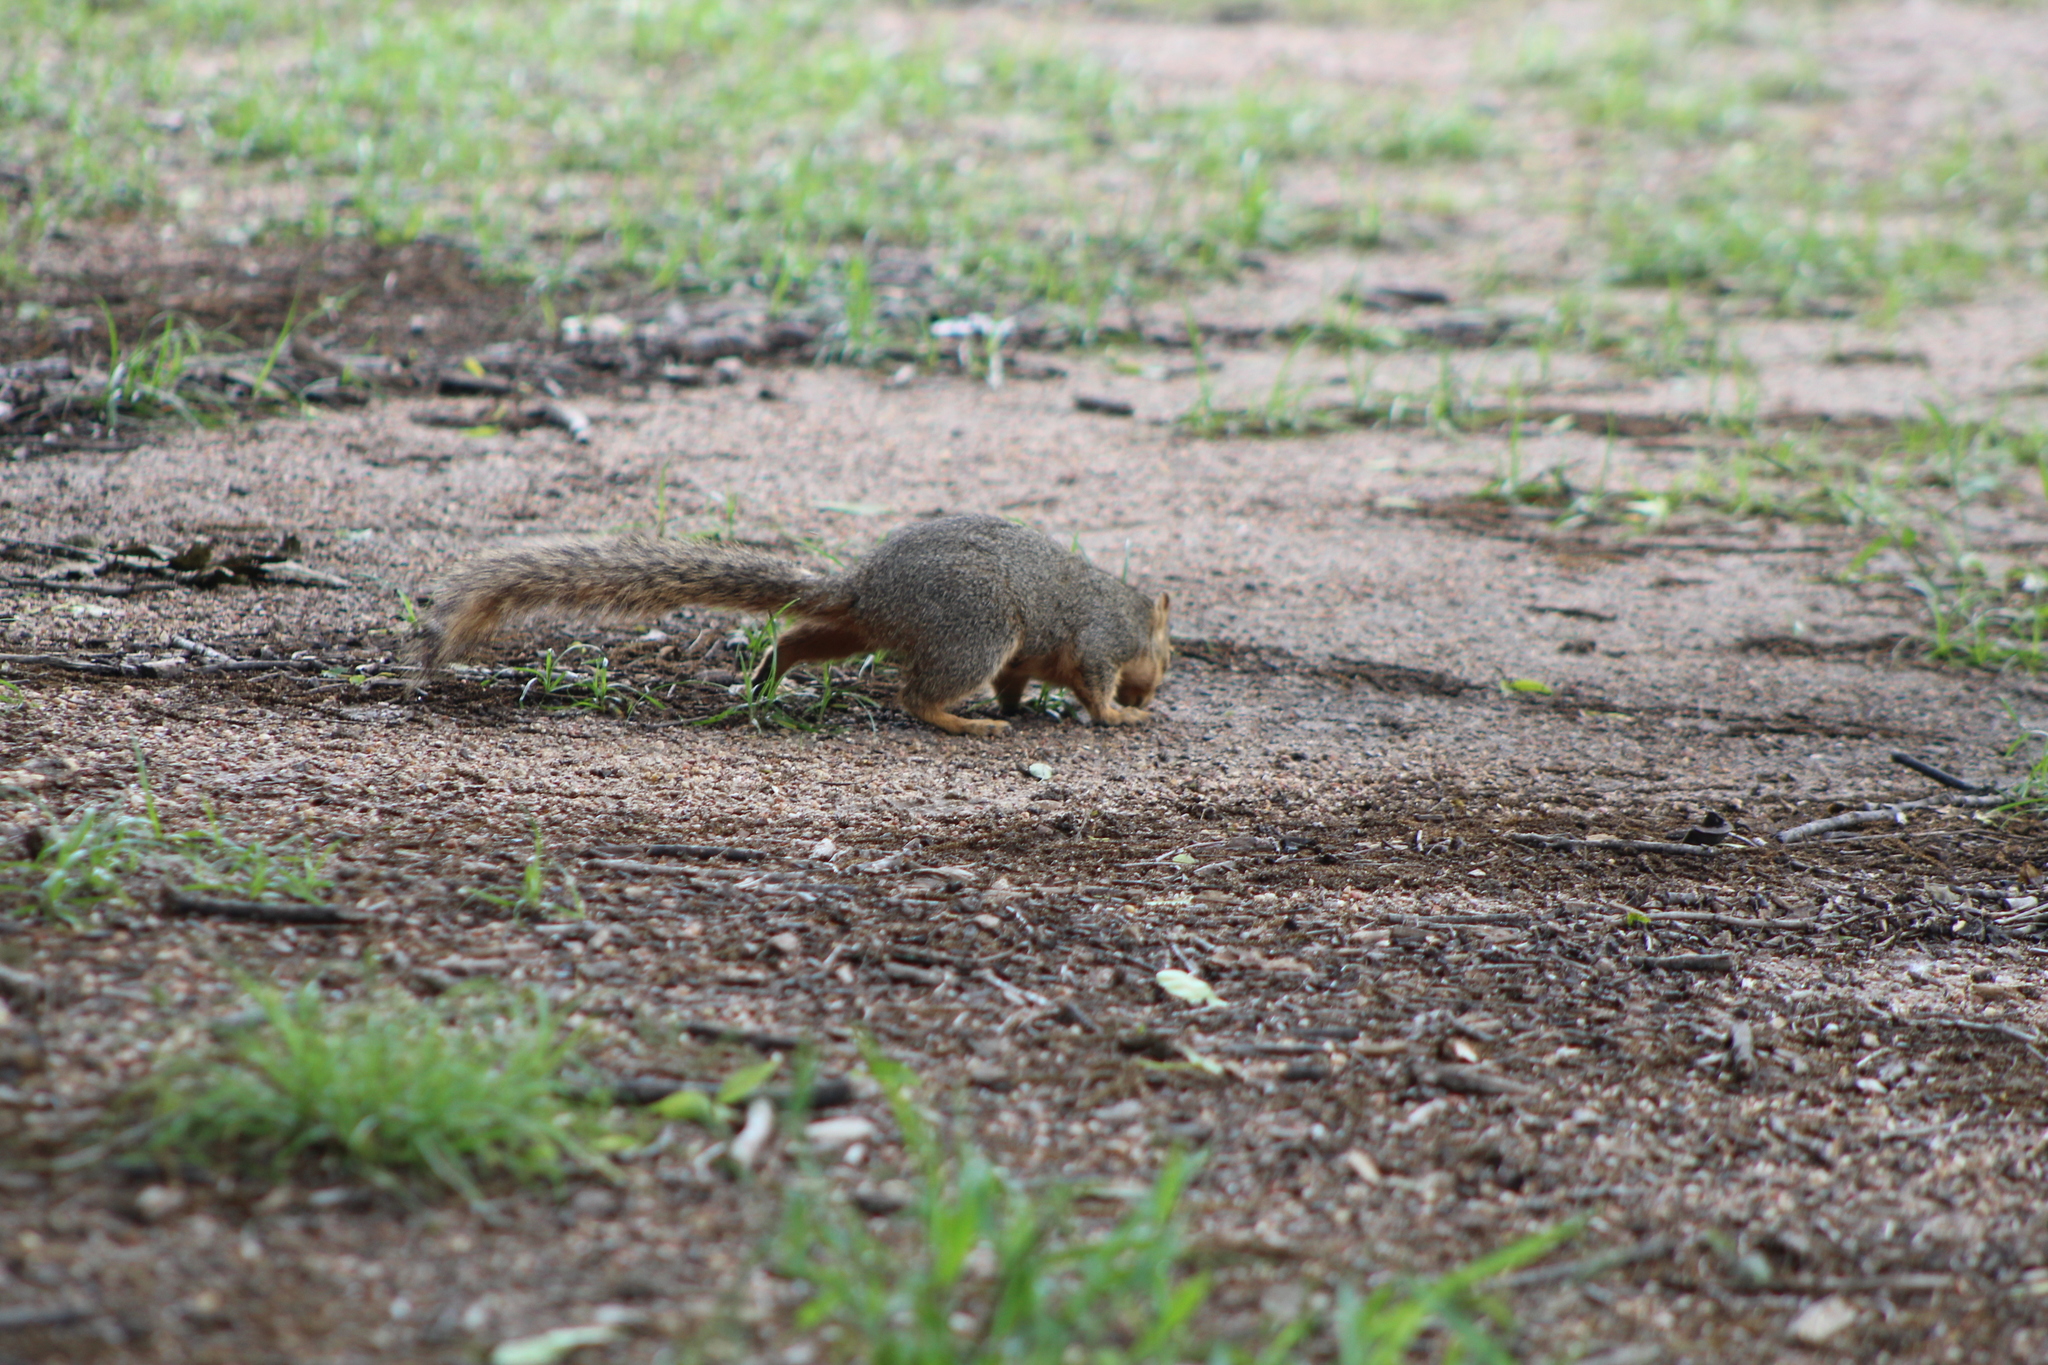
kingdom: Animalia
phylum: Chordata
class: Mammalia
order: Rodentia
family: Sciuridae
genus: Sciurus
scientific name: Sciurus niger
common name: Fox squirrel
